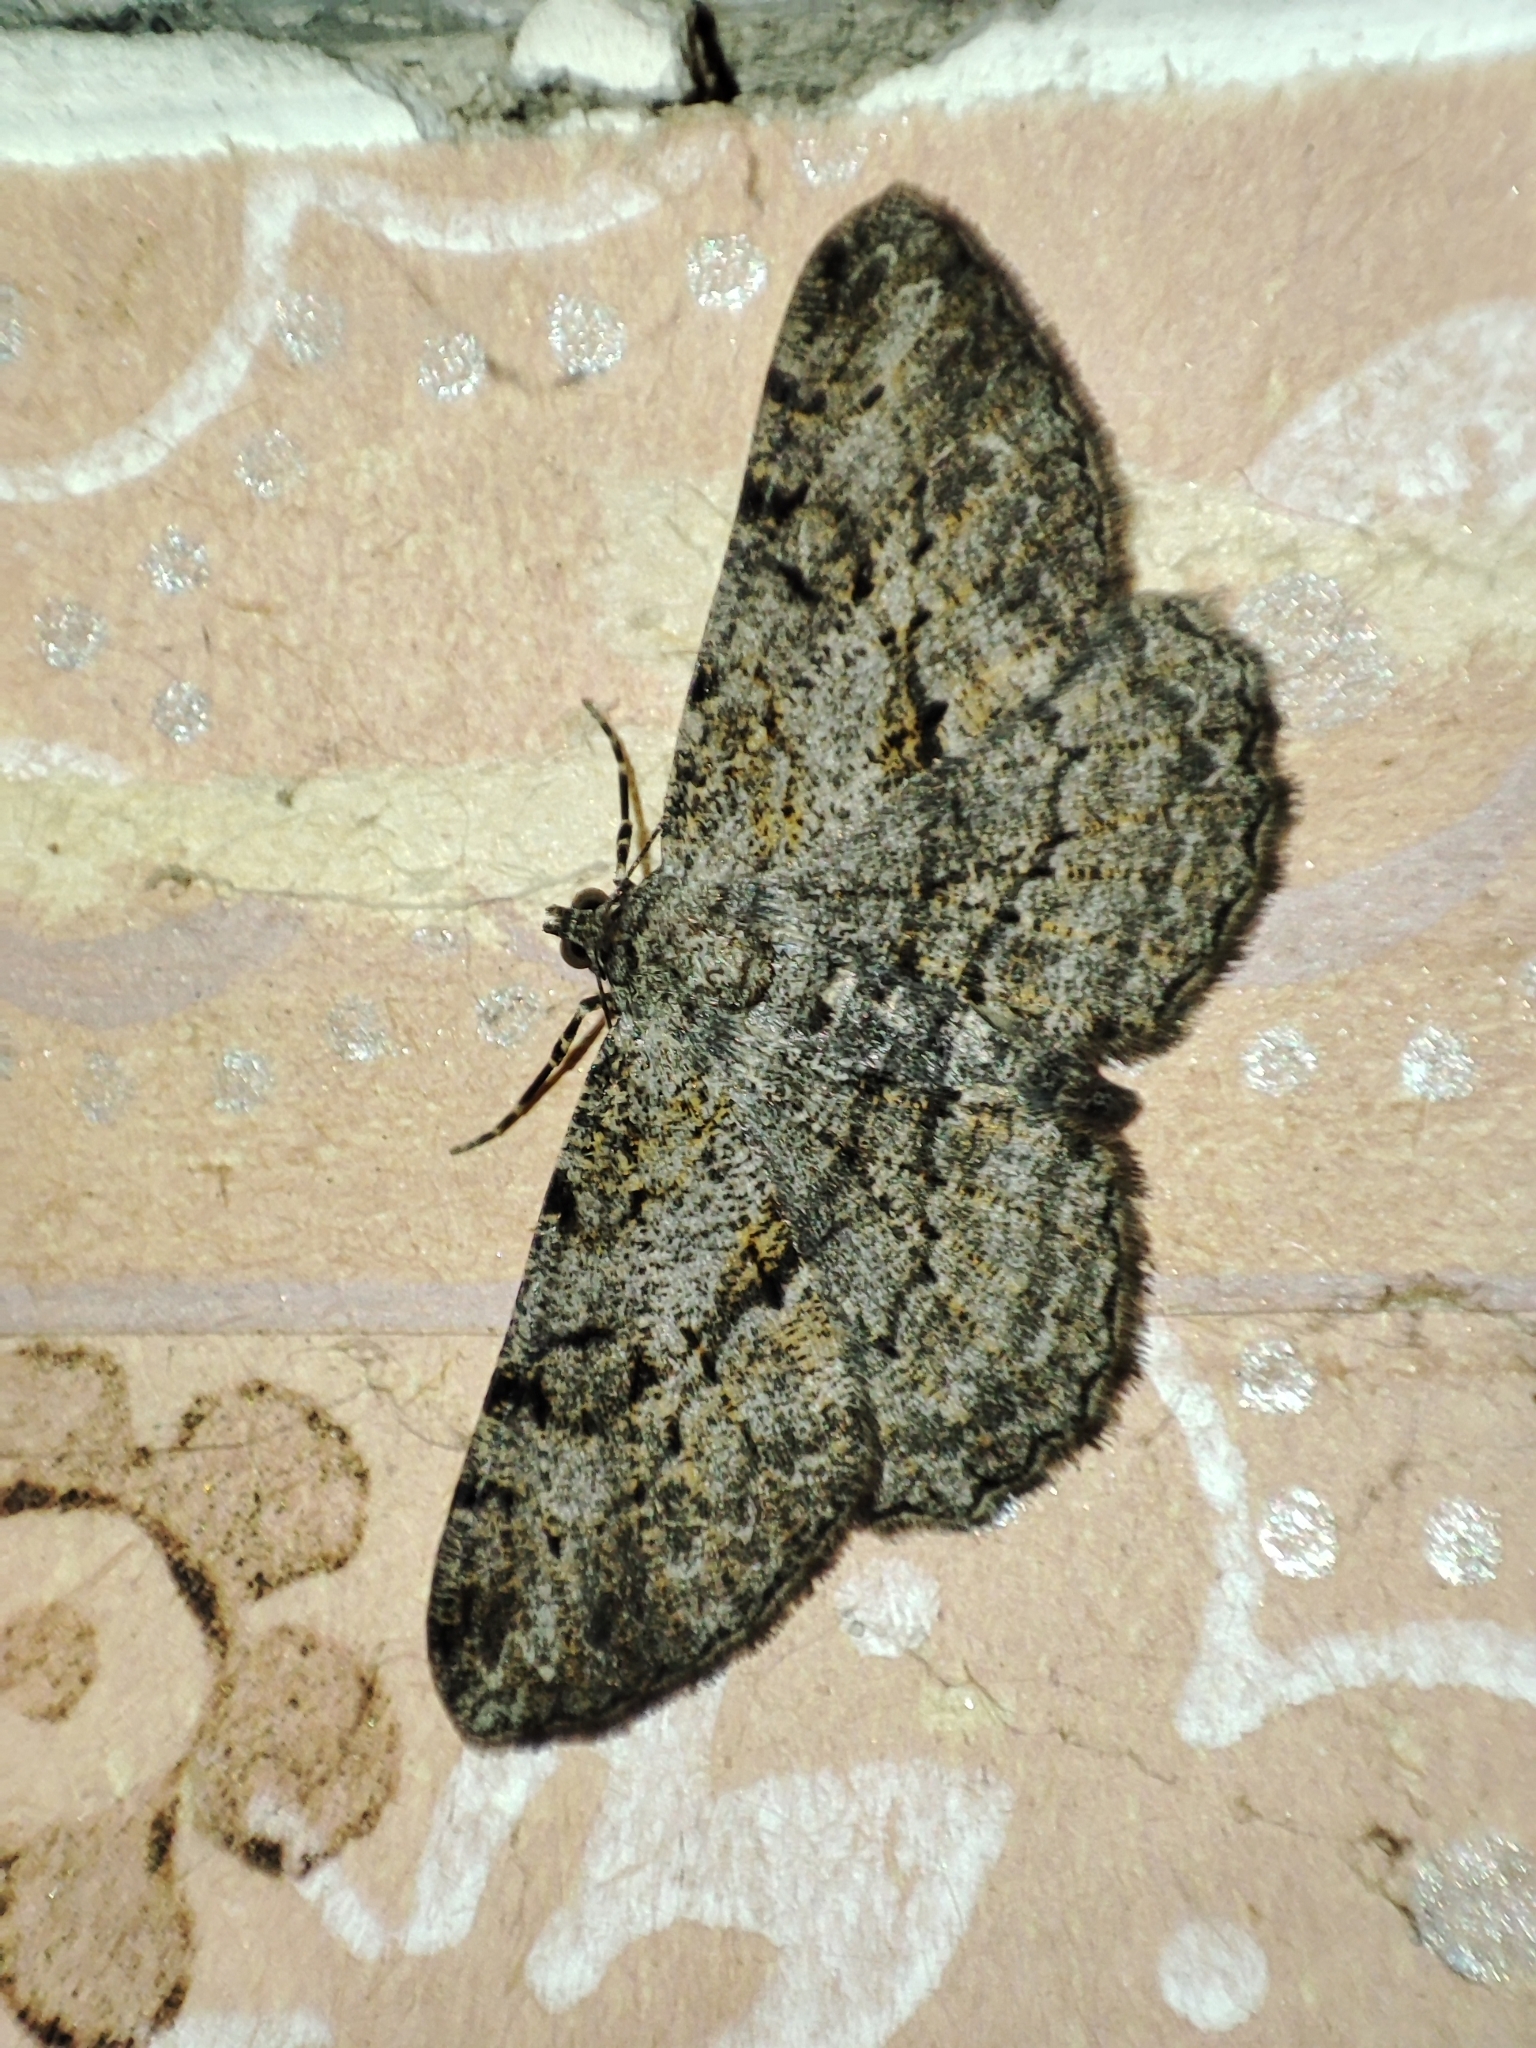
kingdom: Animalia
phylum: Arthropoda
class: Insecta
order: Lepidoptera
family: Geometridae
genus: Peribatodes
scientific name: Peribatodes rhomboidaria
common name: Willow beauty
